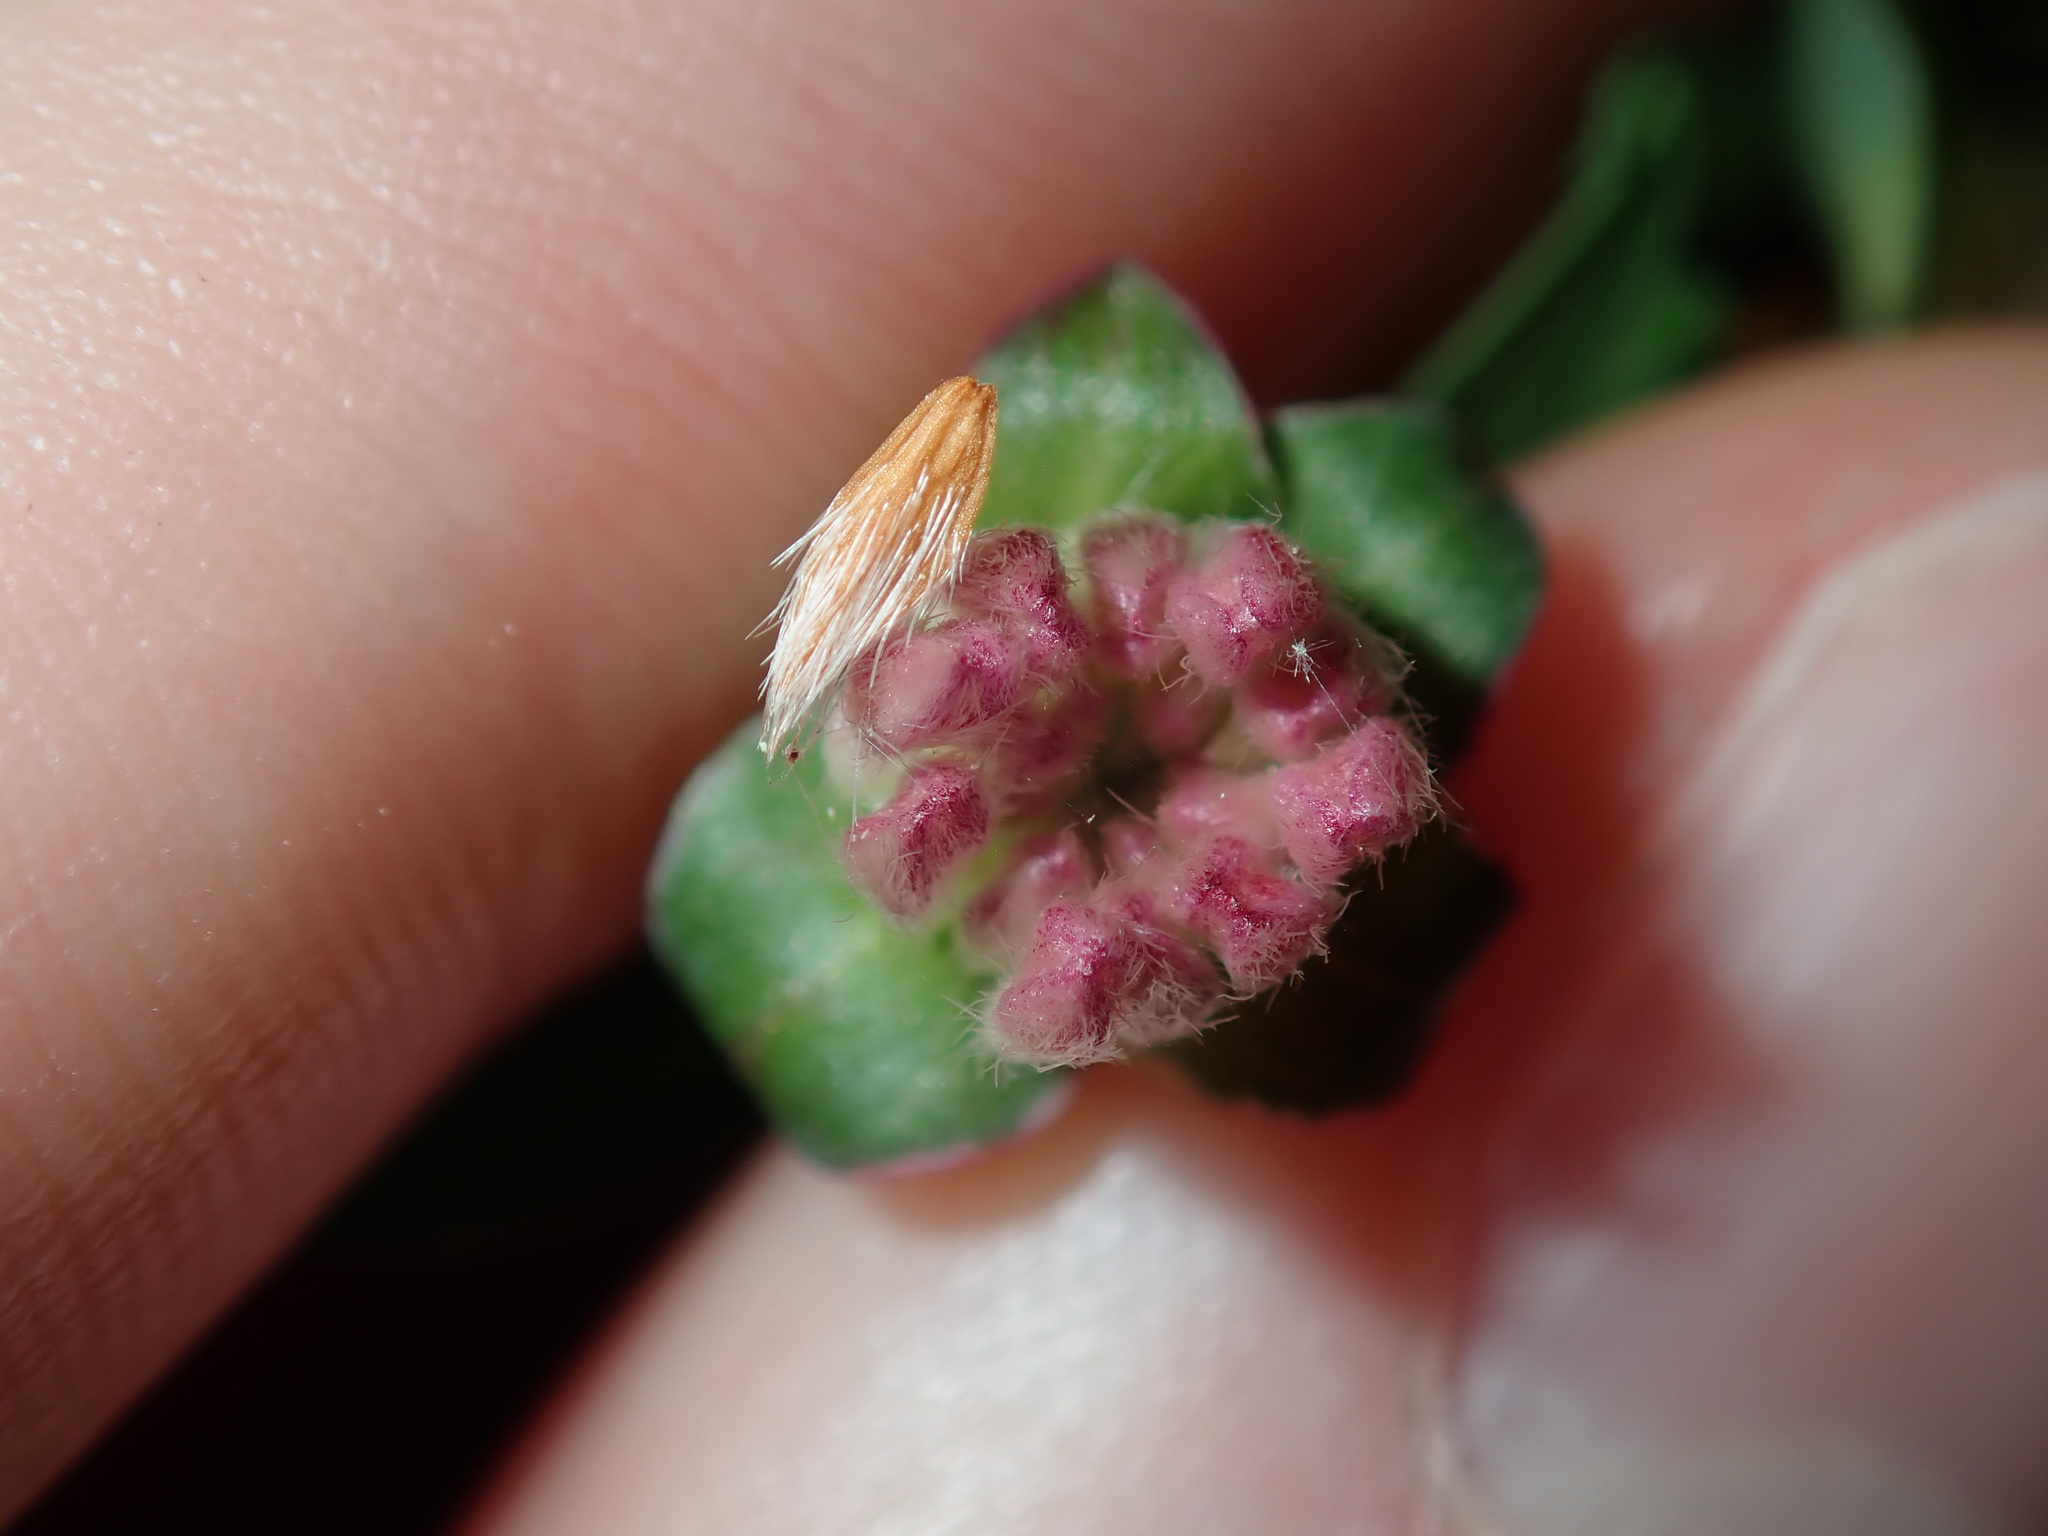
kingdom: Plantae
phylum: Tracheophyta
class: Magnoliopsida
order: Malvales
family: Thymelaeaceae
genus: Pimelea
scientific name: Pimelea linifolia
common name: Queen-of-the-bush
